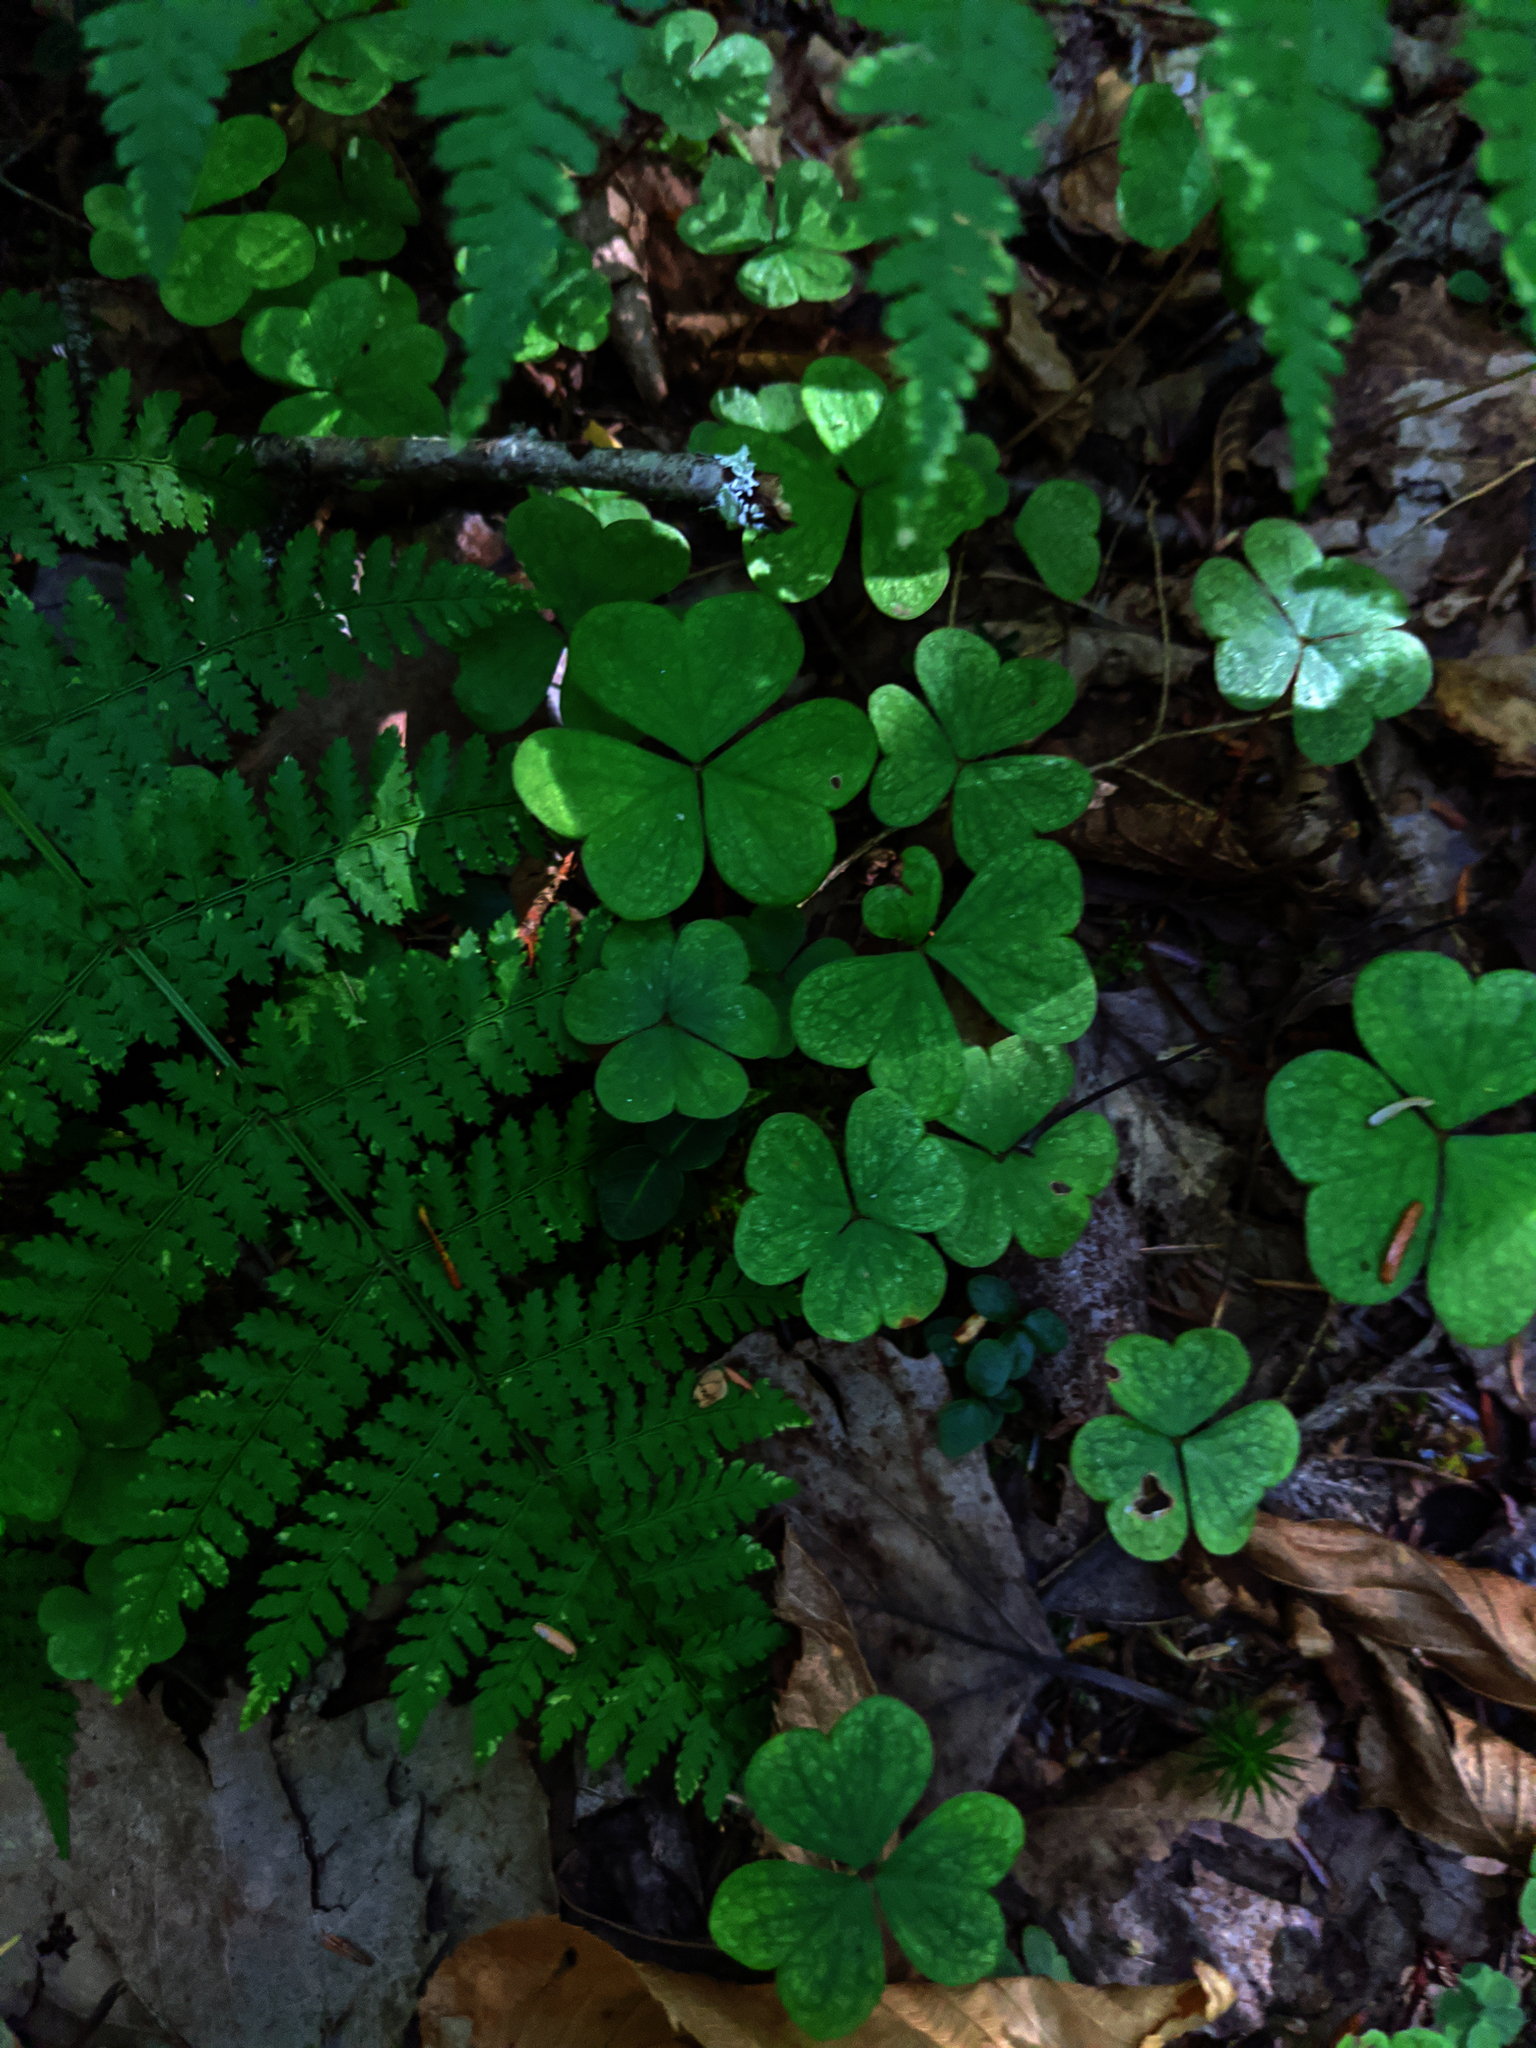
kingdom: Plantae
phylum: Tracheophyta
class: Magnoliopsida
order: Oxalidales
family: Oxalidaceae
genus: Oxalis
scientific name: Oxalis montana
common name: American wood-sorrel
